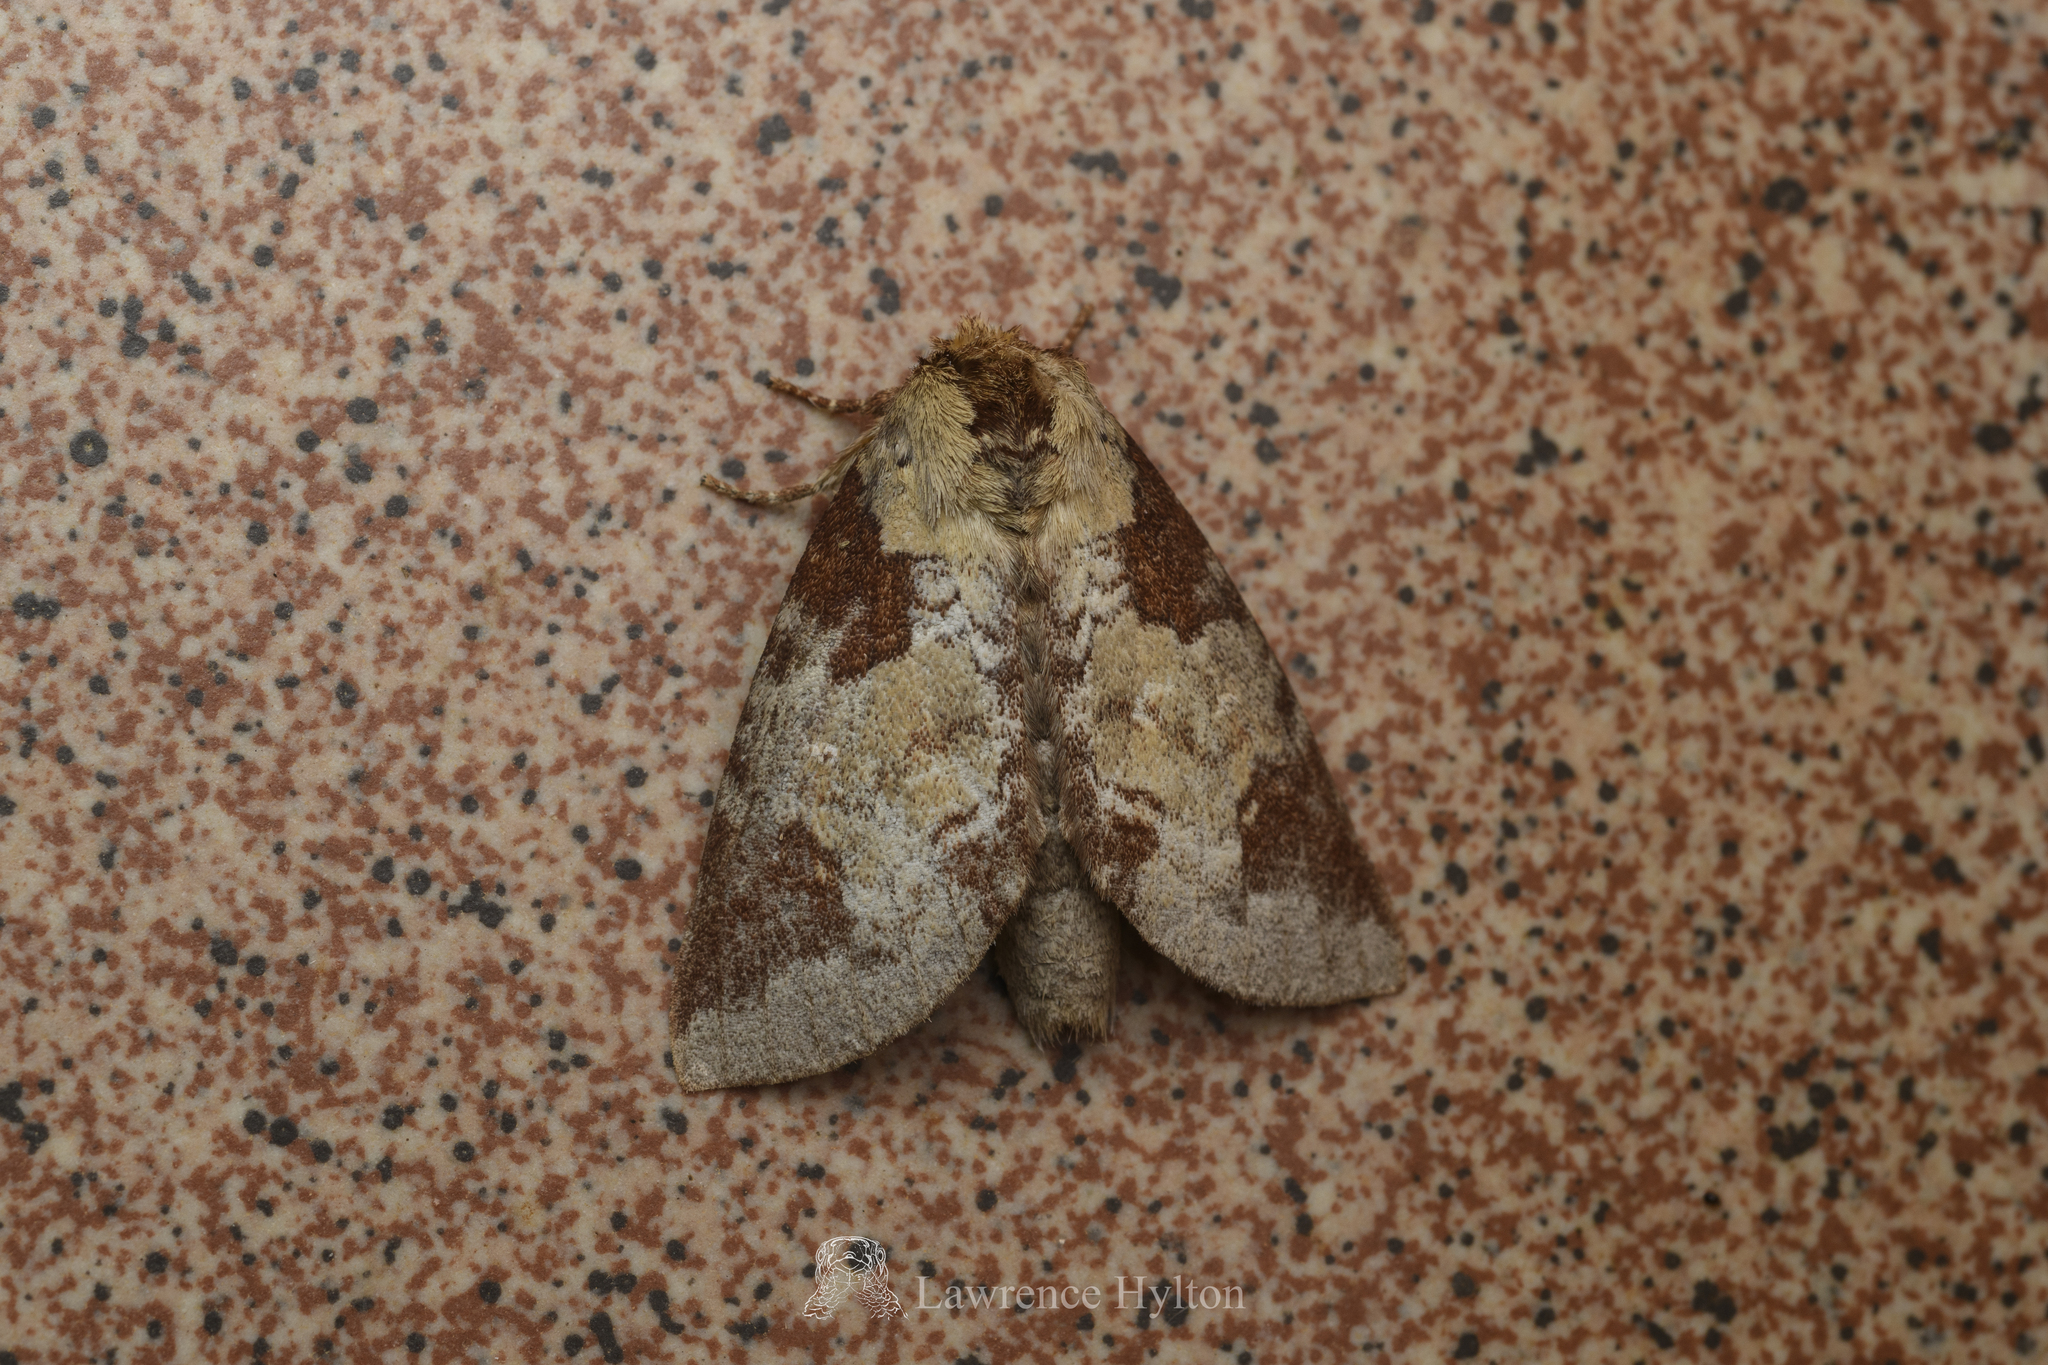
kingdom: Animalia
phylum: Arthropoda
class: Insecta
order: Lepidoptera
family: Notodontidae
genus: Neodrymonia
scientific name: Neodrymonia taipoensis
